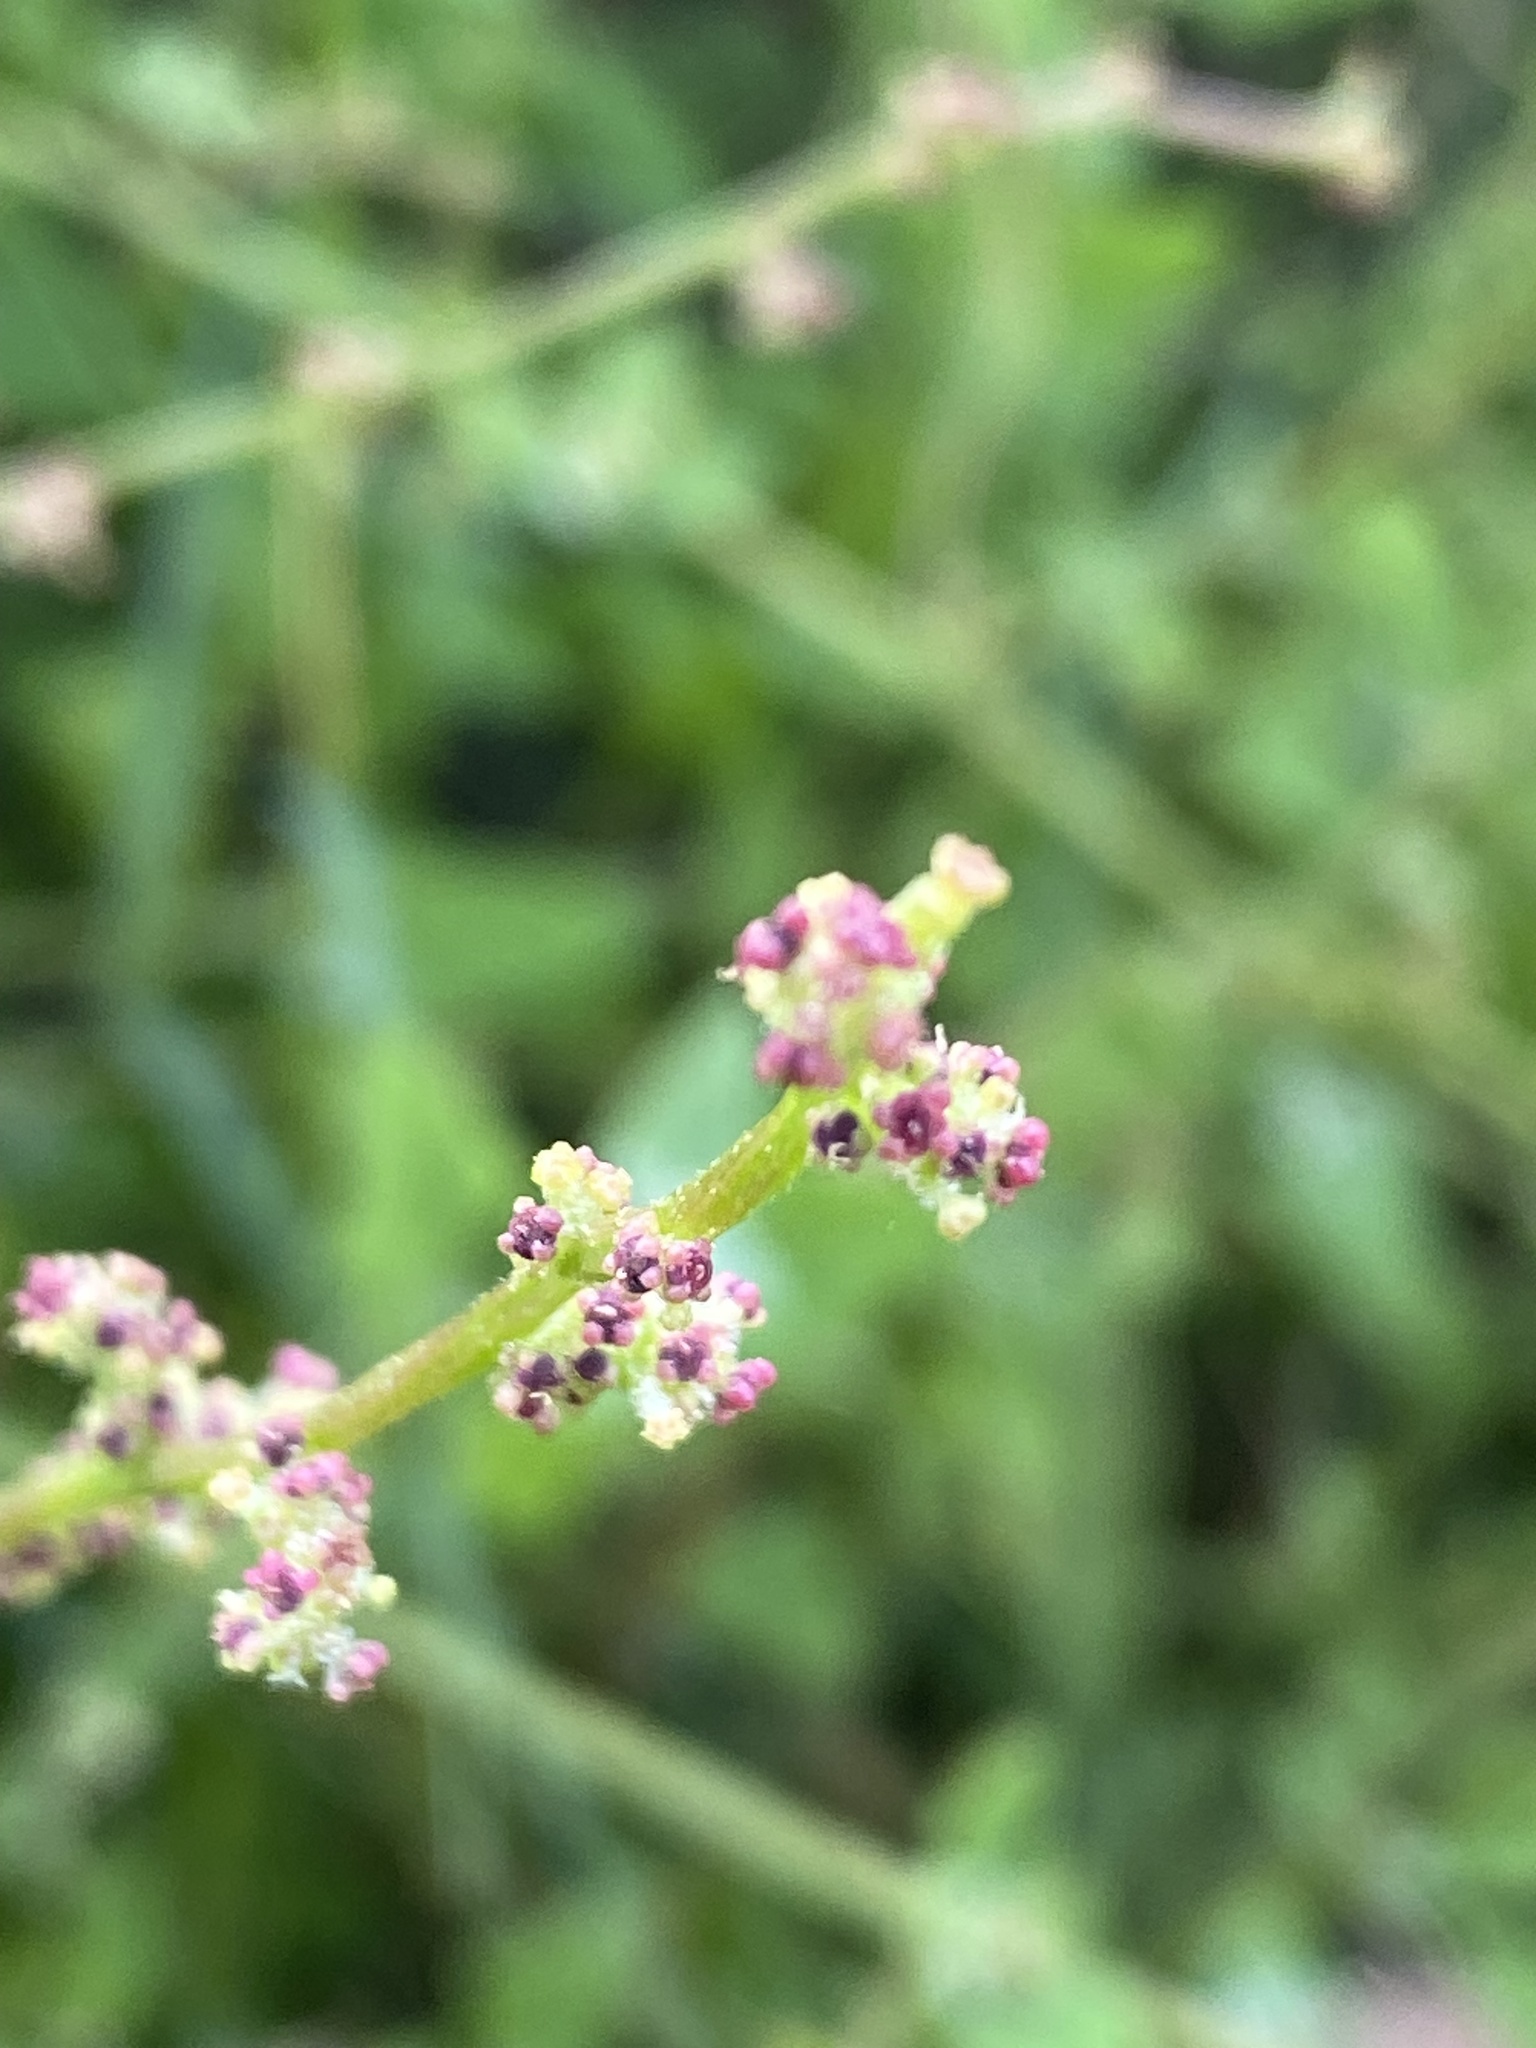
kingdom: Plantae
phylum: Tracheophyta
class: Magnoliopsida
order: Caryophyllales
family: Amaranthaceae
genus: Chenopodium
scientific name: Chenopodium trigonon
